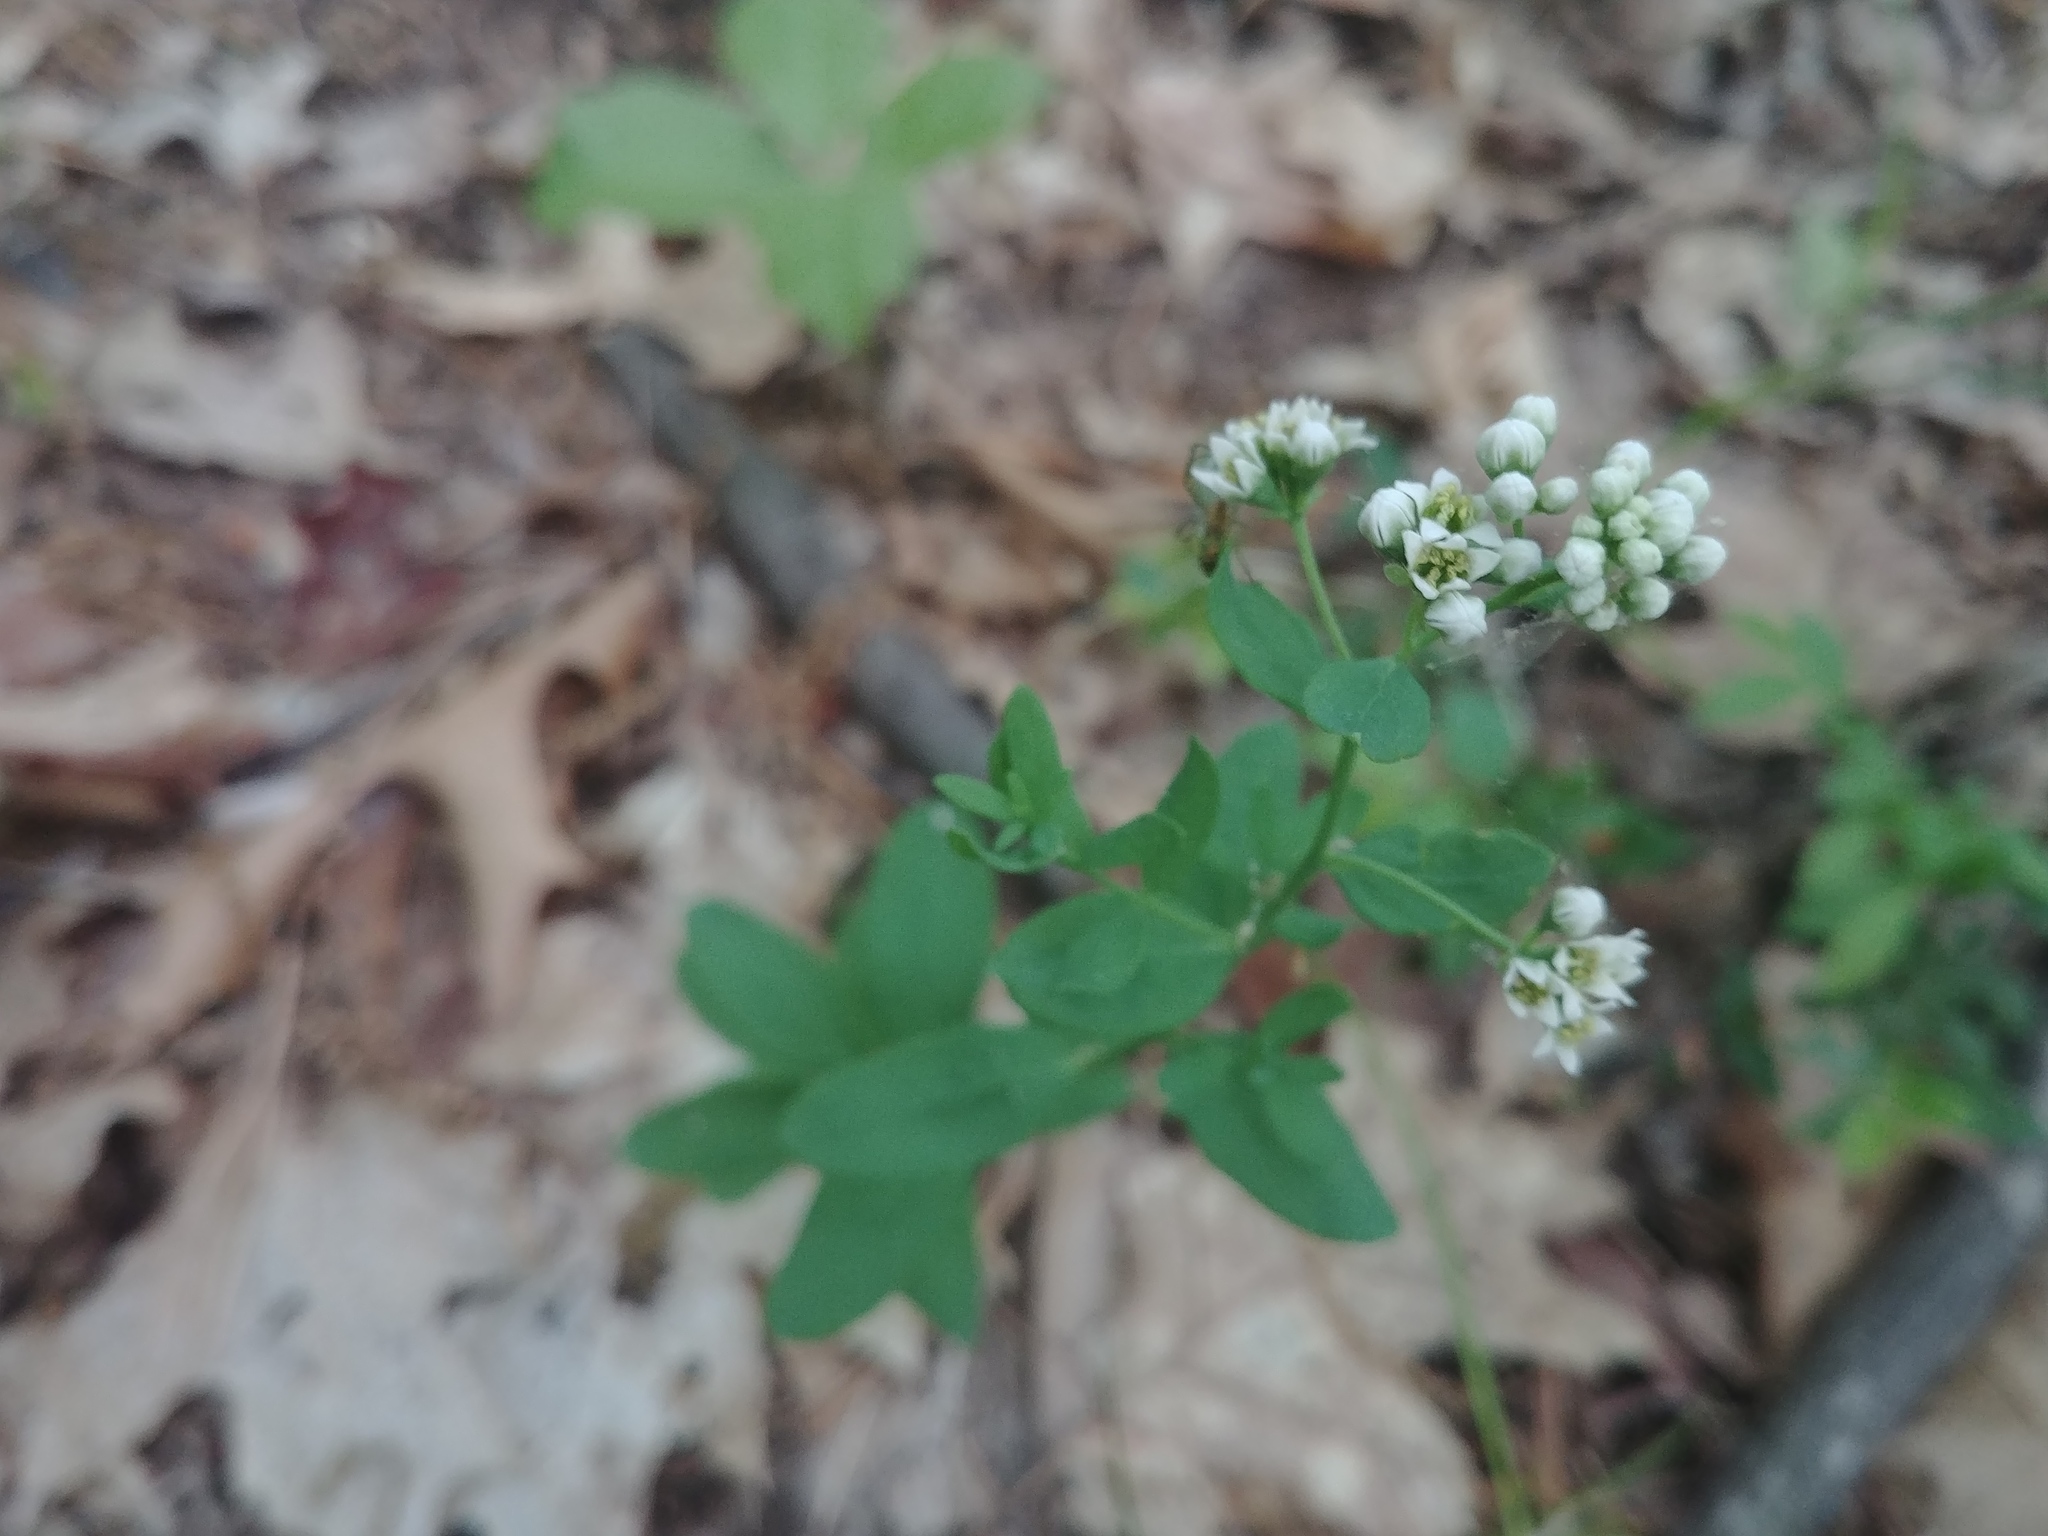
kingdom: Plantae
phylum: Tracheophyta
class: Magnoliopsida
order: Santalales
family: Comandraceae
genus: Comandra
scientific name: Comandra umbellata
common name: Bastard toadflax
